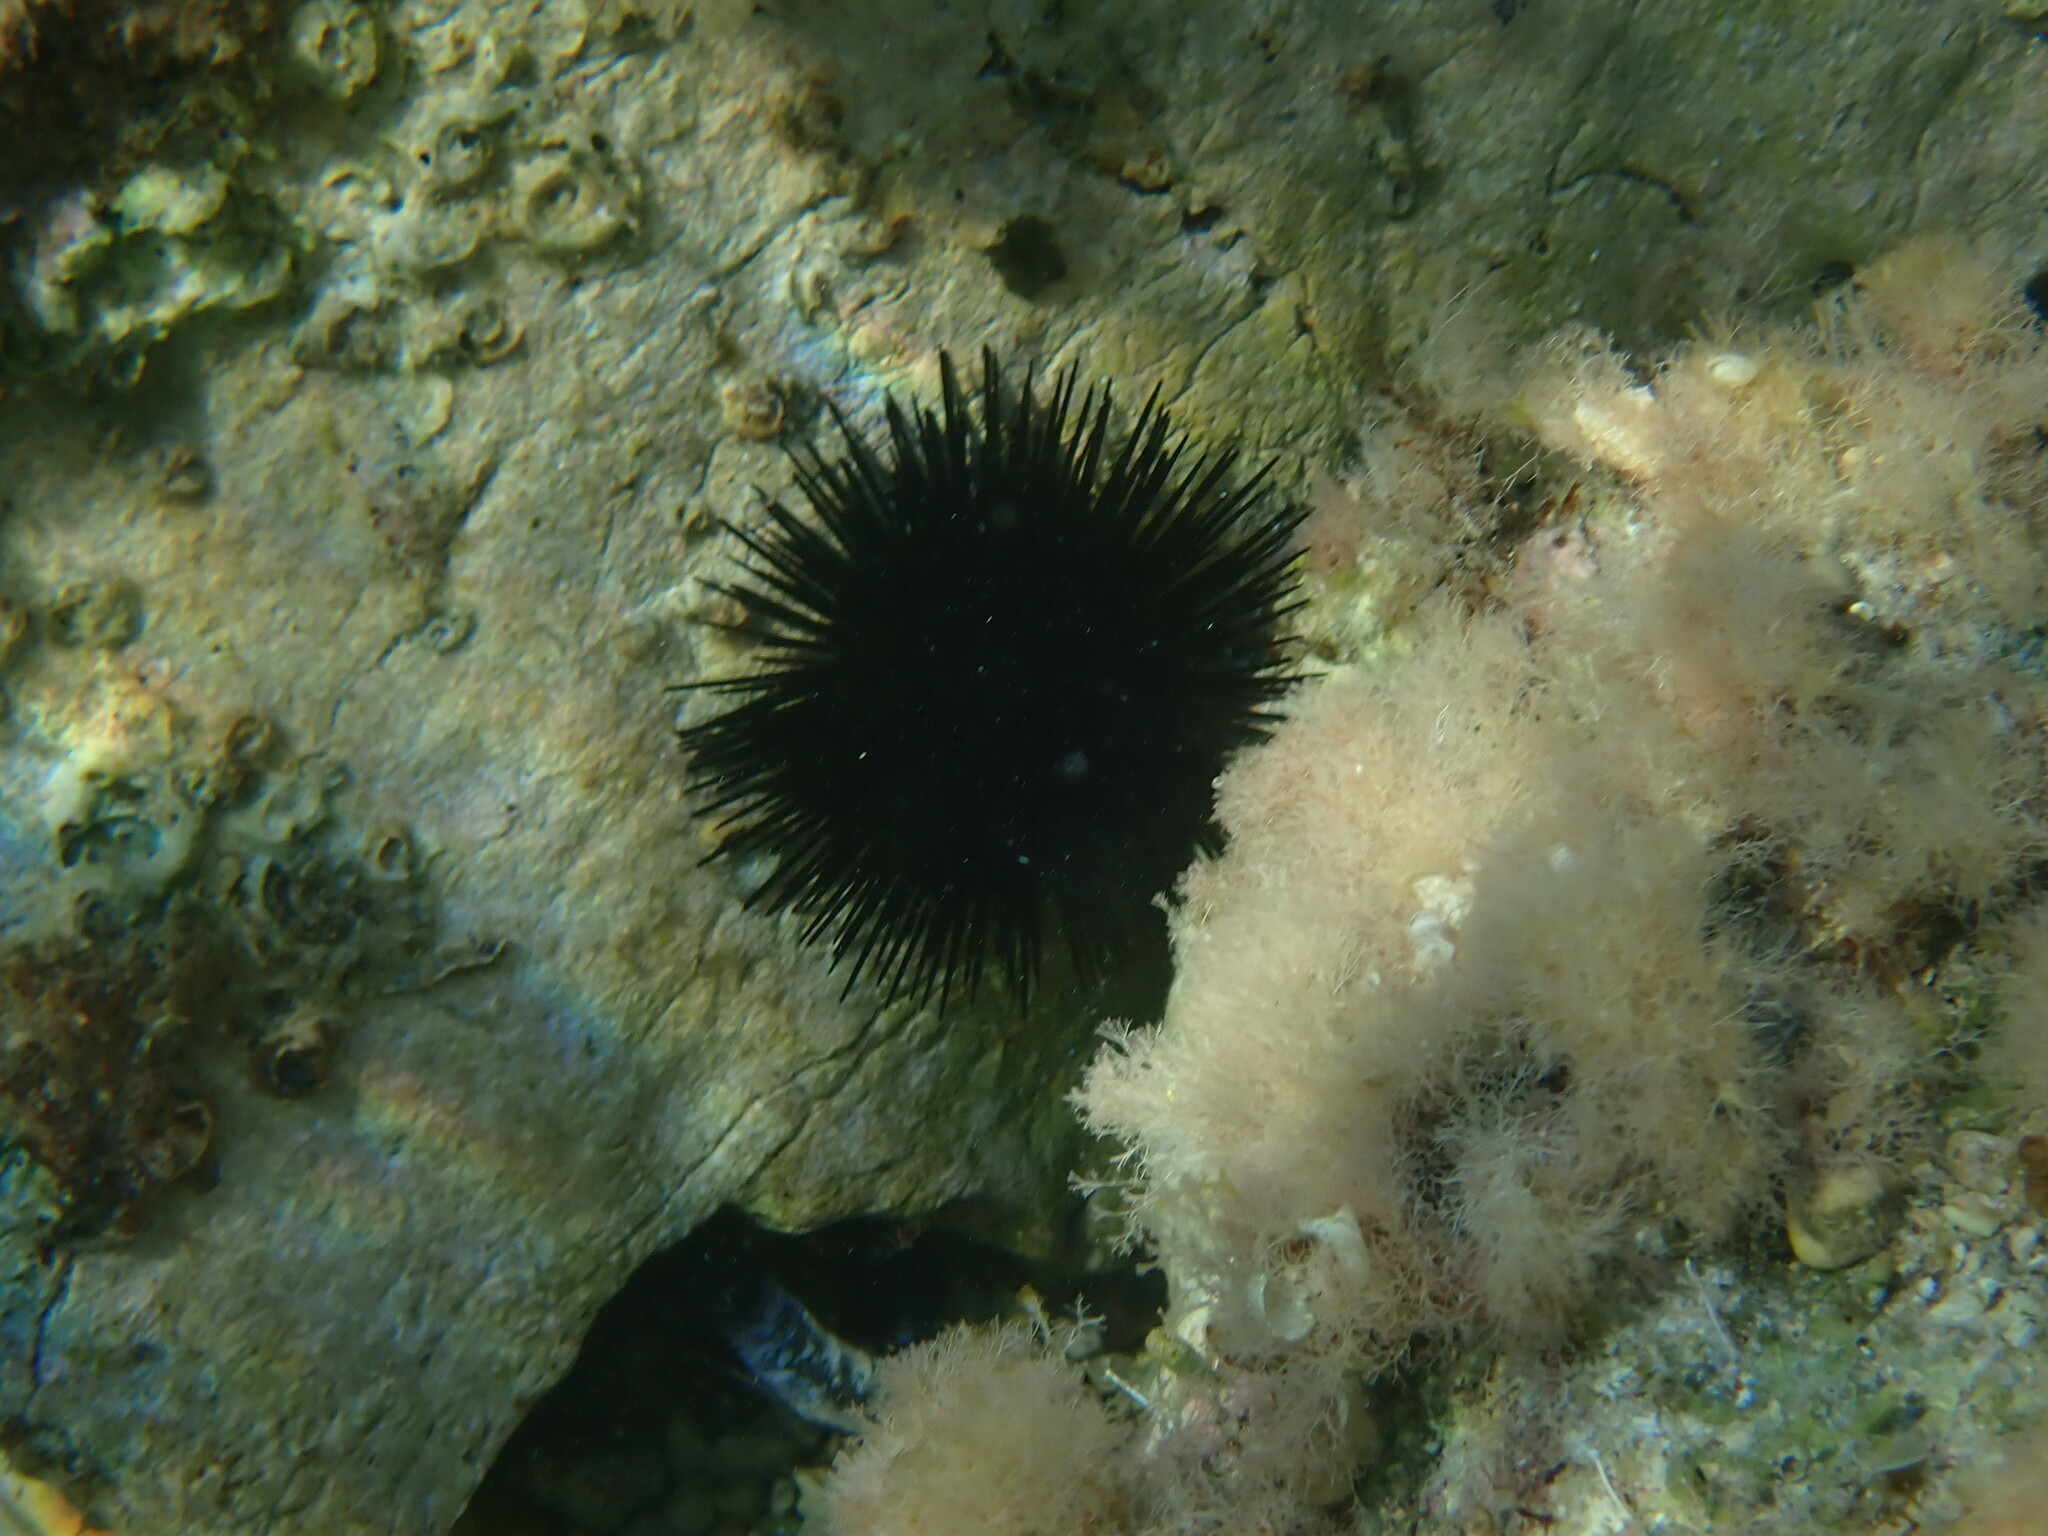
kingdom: Animalia
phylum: Echinodermata
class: Echinoidea
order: Arbacioida
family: Arbaciidae
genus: Arbacia
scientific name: Arbacia lixula
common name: Black sea urchin
